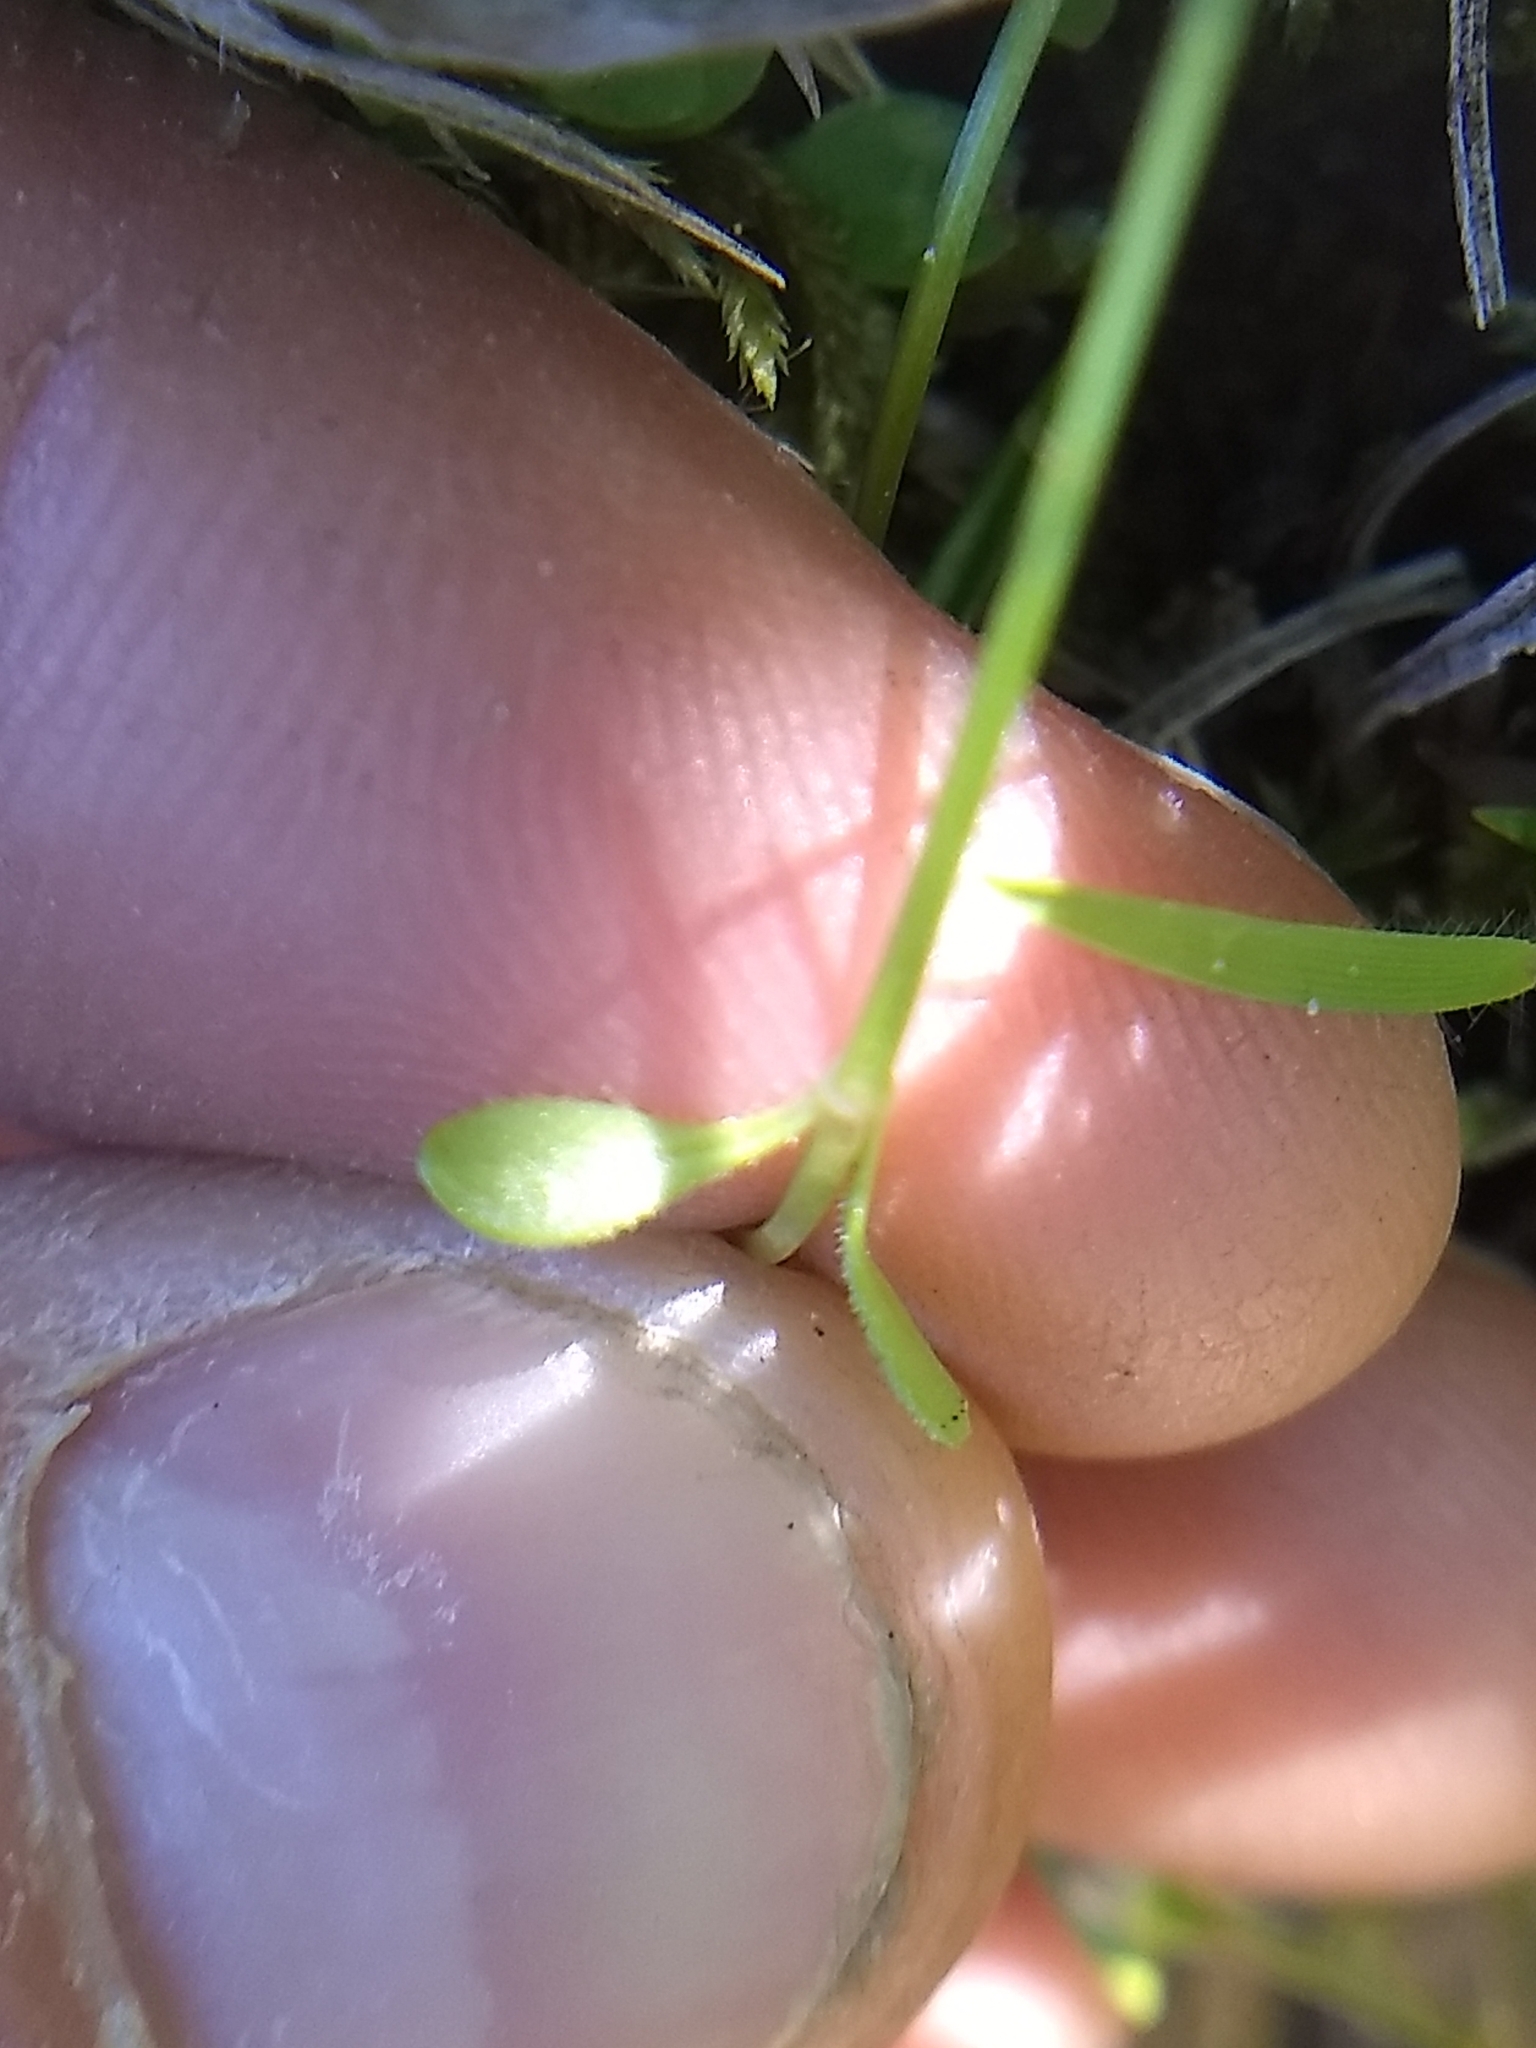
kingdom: Plantae
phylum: Tracheophyta
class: Magnoliopsida
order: Gentianales
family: Rubiaceae
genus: Houstonia
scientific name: Houstonia caerulea
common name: Bluets
